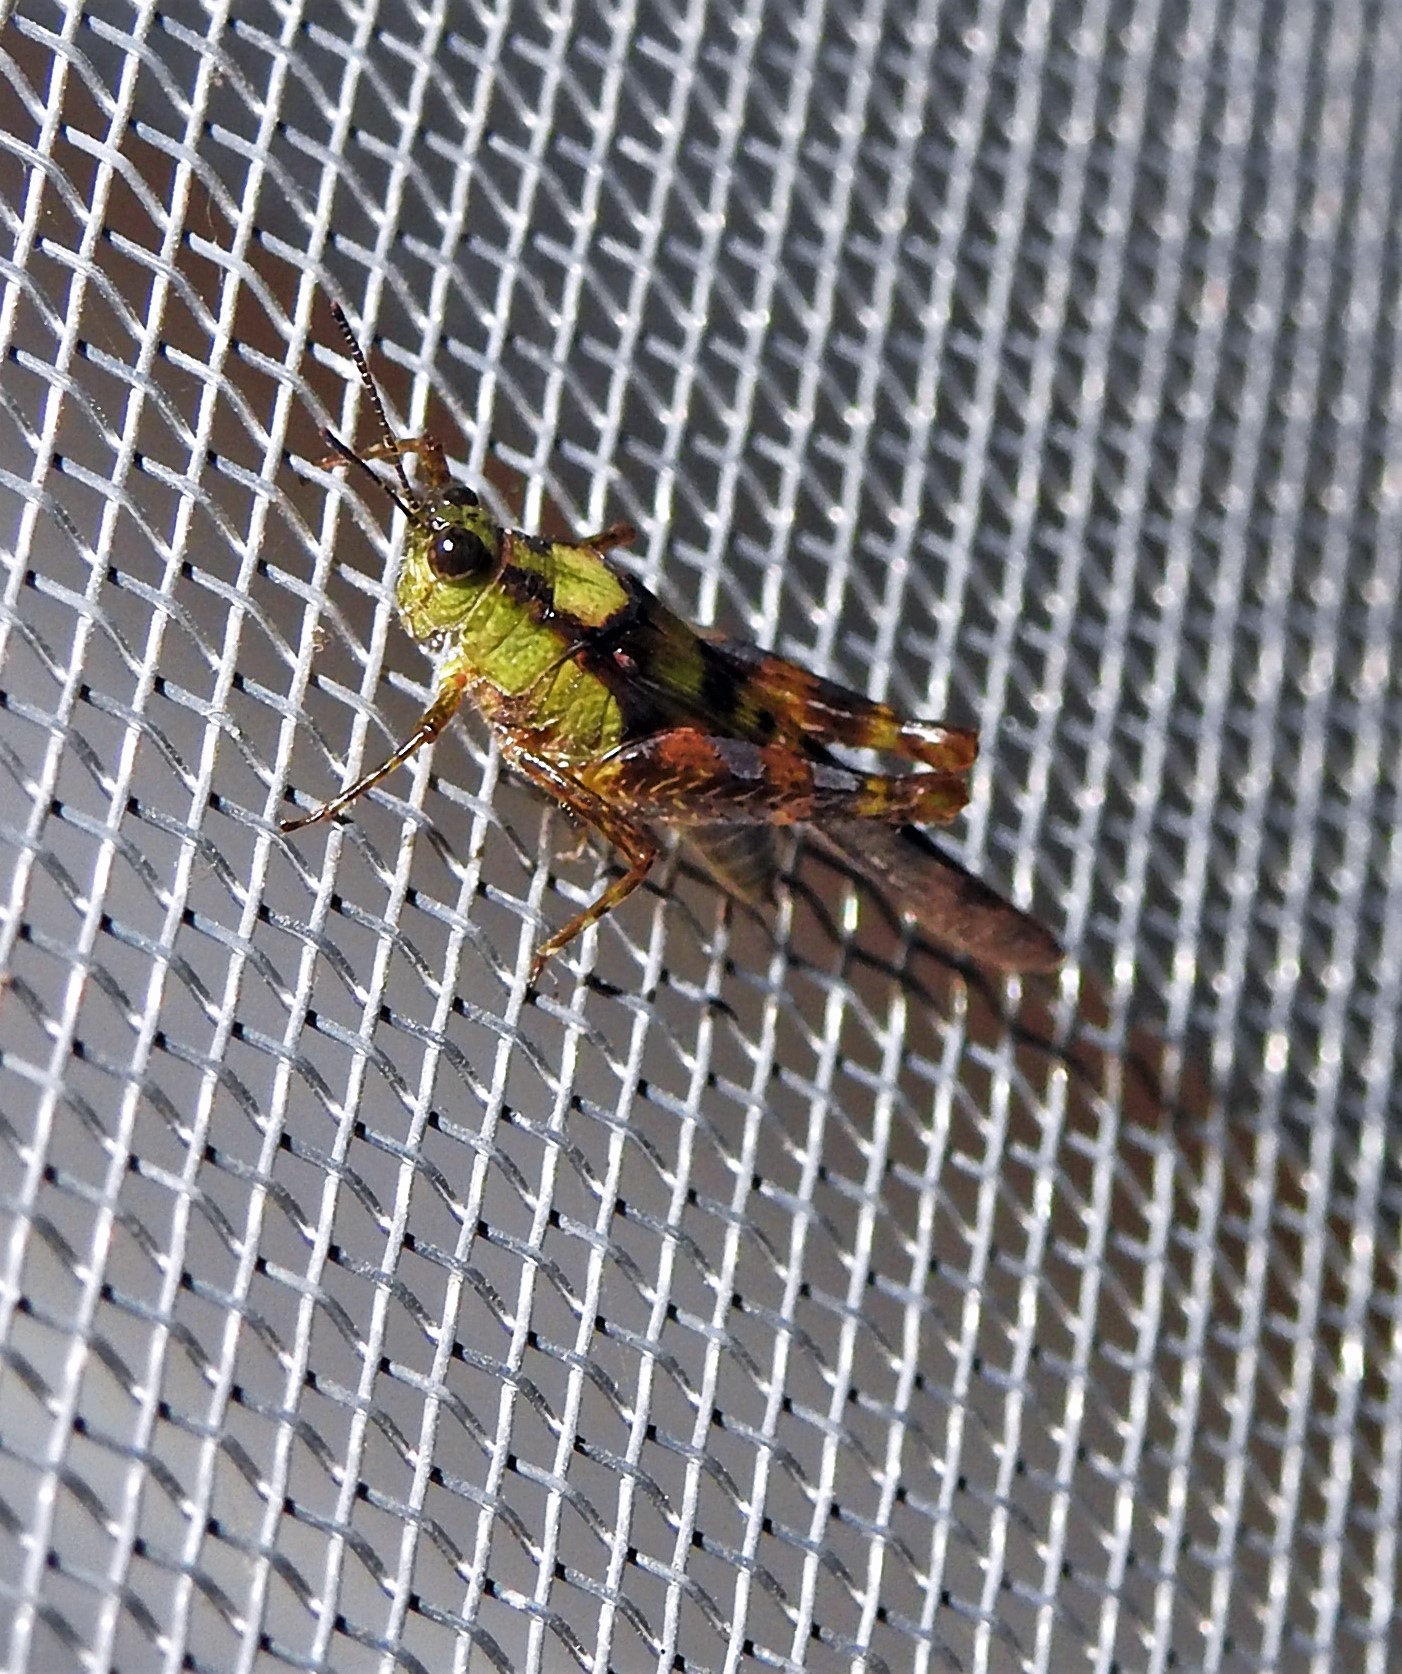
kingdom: Animalia
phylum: Arthropoda
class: Insecta
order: Orthoptera
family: Acrididae
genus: Paulinia
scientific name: Paulinia acuminata
